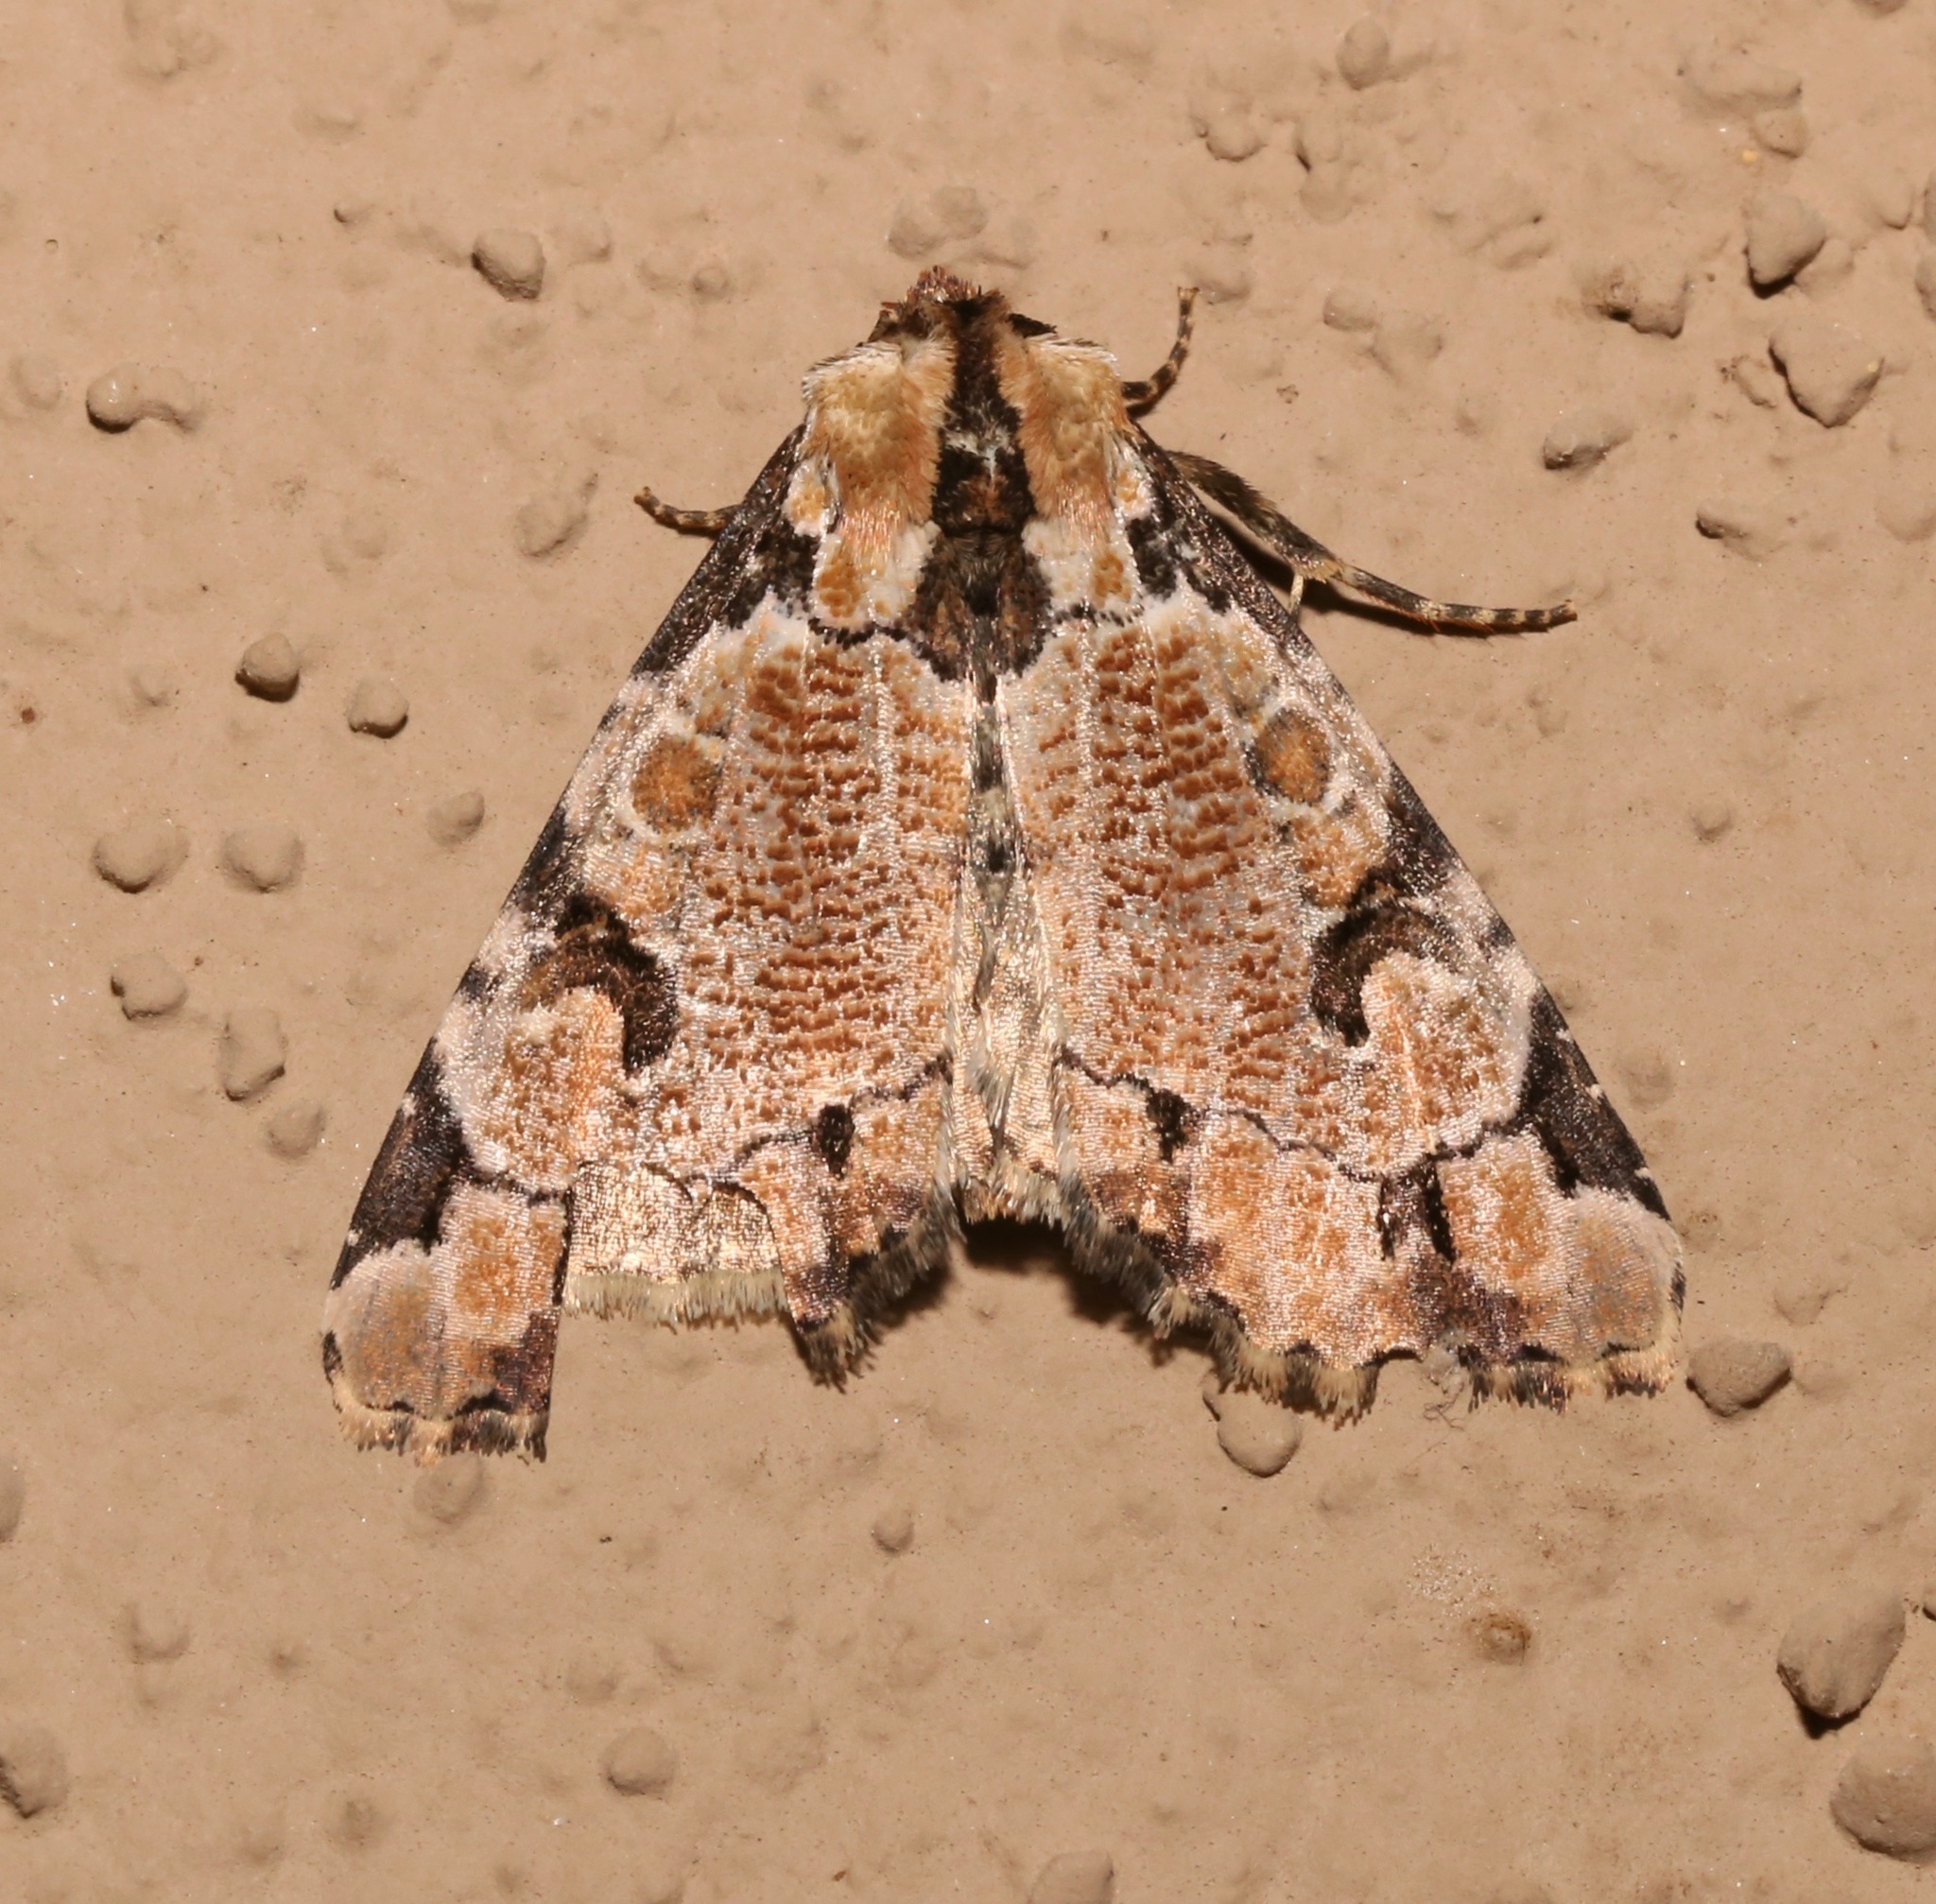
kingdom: Animalia
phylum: Arthropoda
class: Insecta
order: Lepidoptera
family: Noctuidae
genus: Stibaera
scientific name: Stibaera thyatiroides
